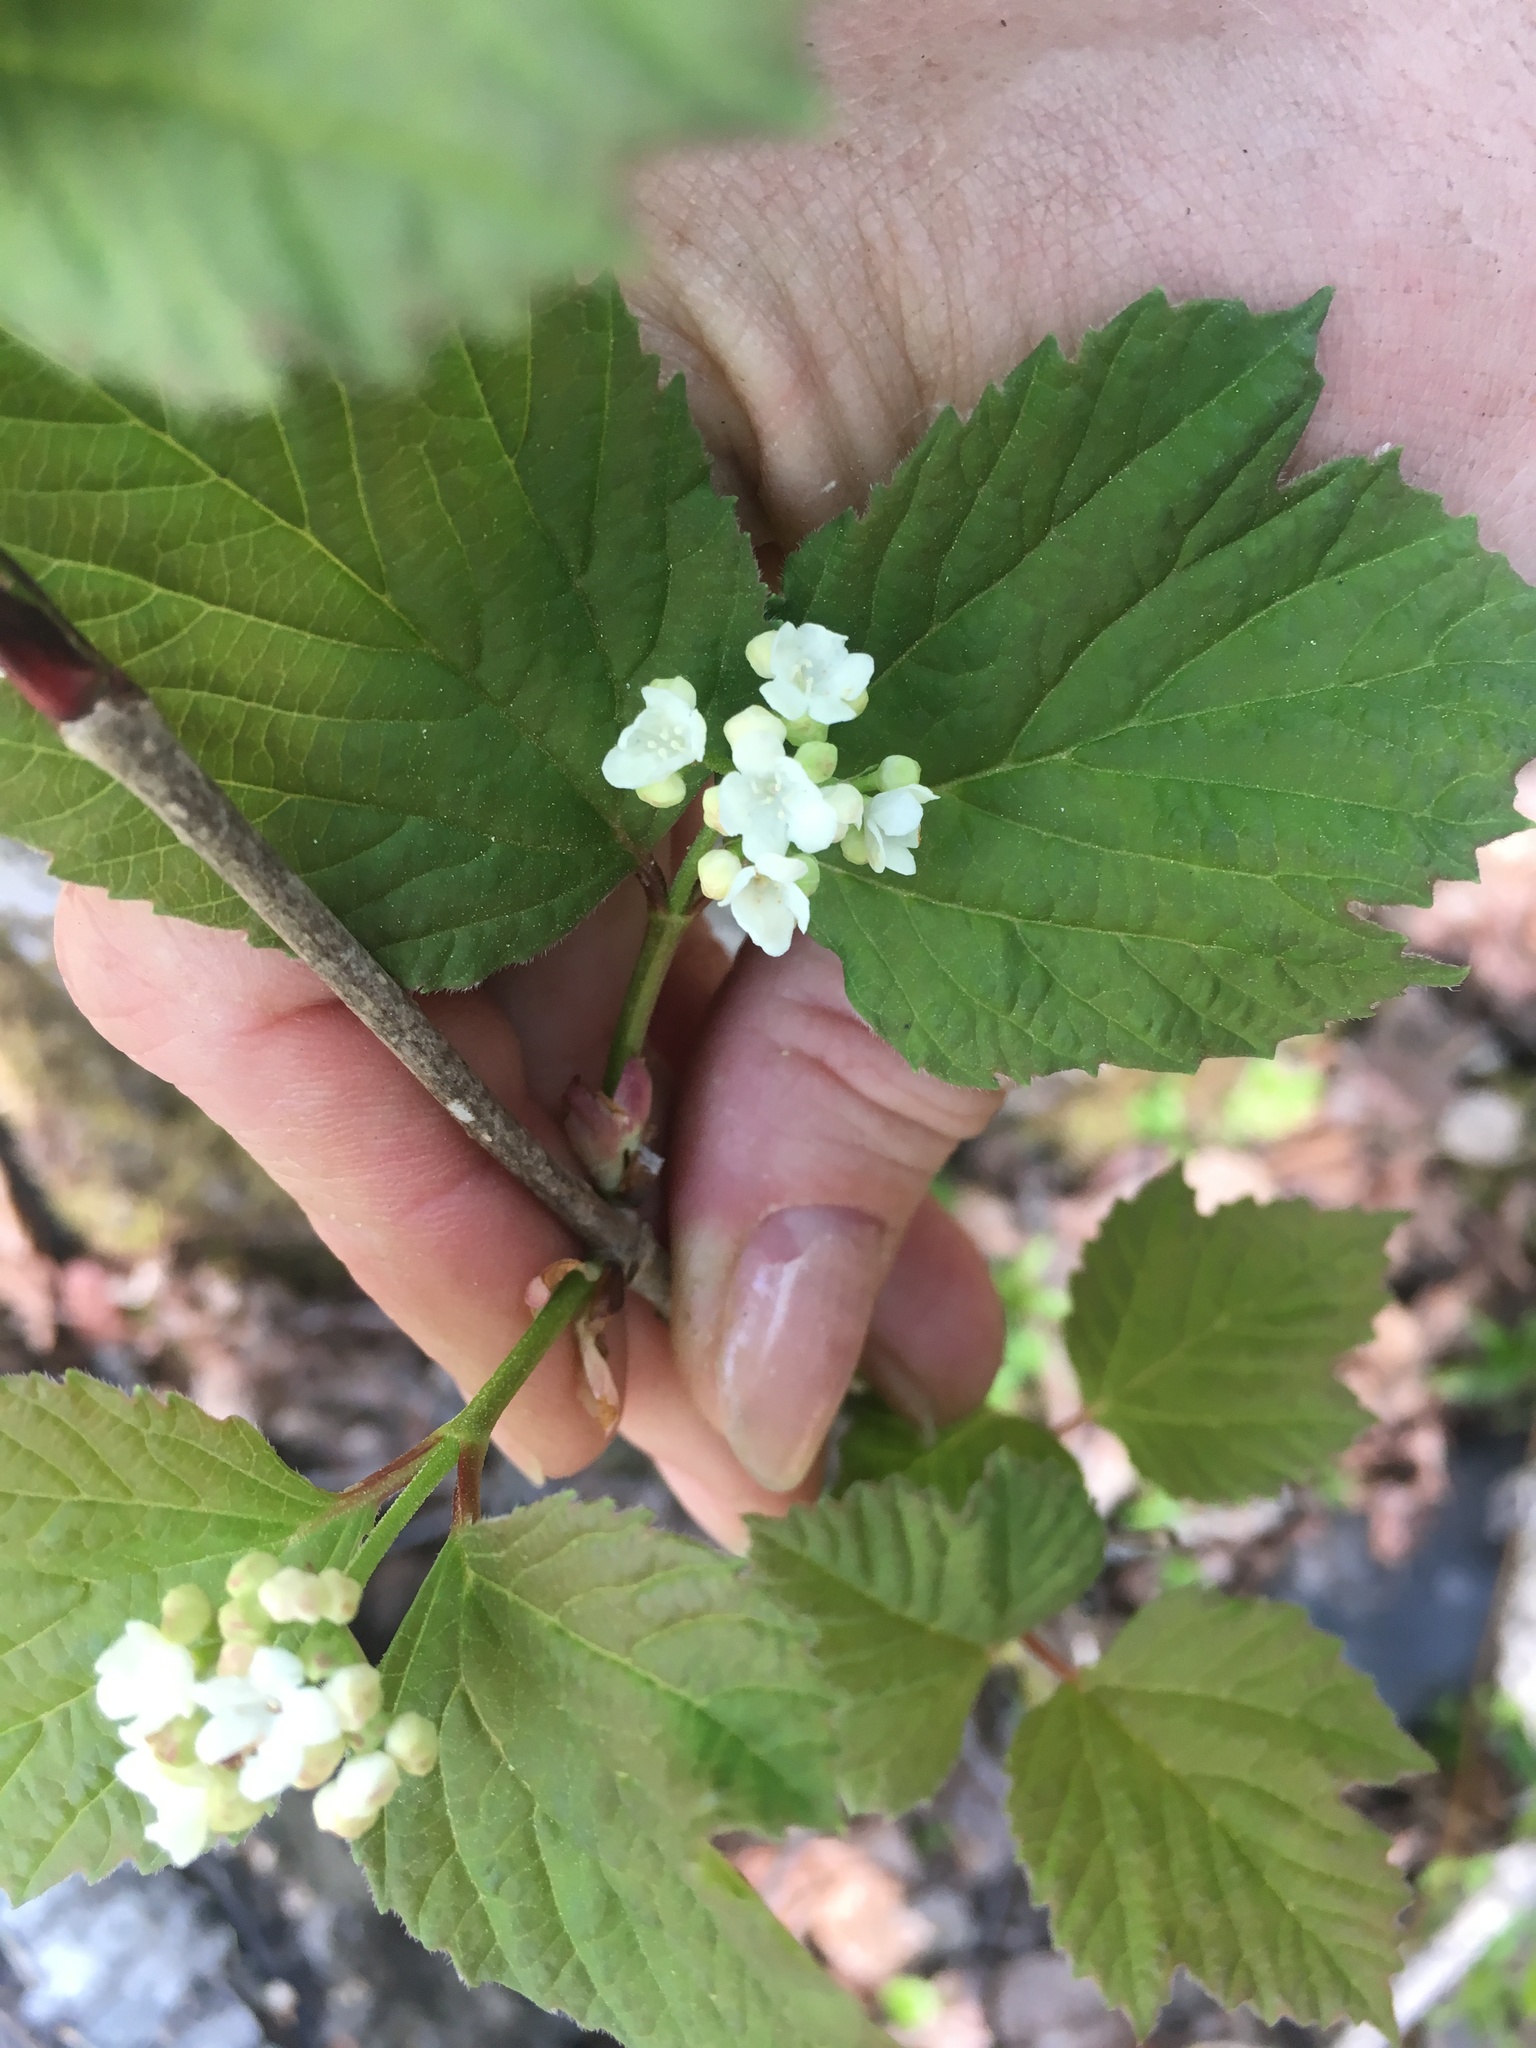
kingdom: Plantae
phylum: Tracheophyta
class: Magnoliopsida
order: Dipsacales
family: Viburnaceae
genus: Viburnum
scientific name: Viburnum edule
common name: Mooseberry
